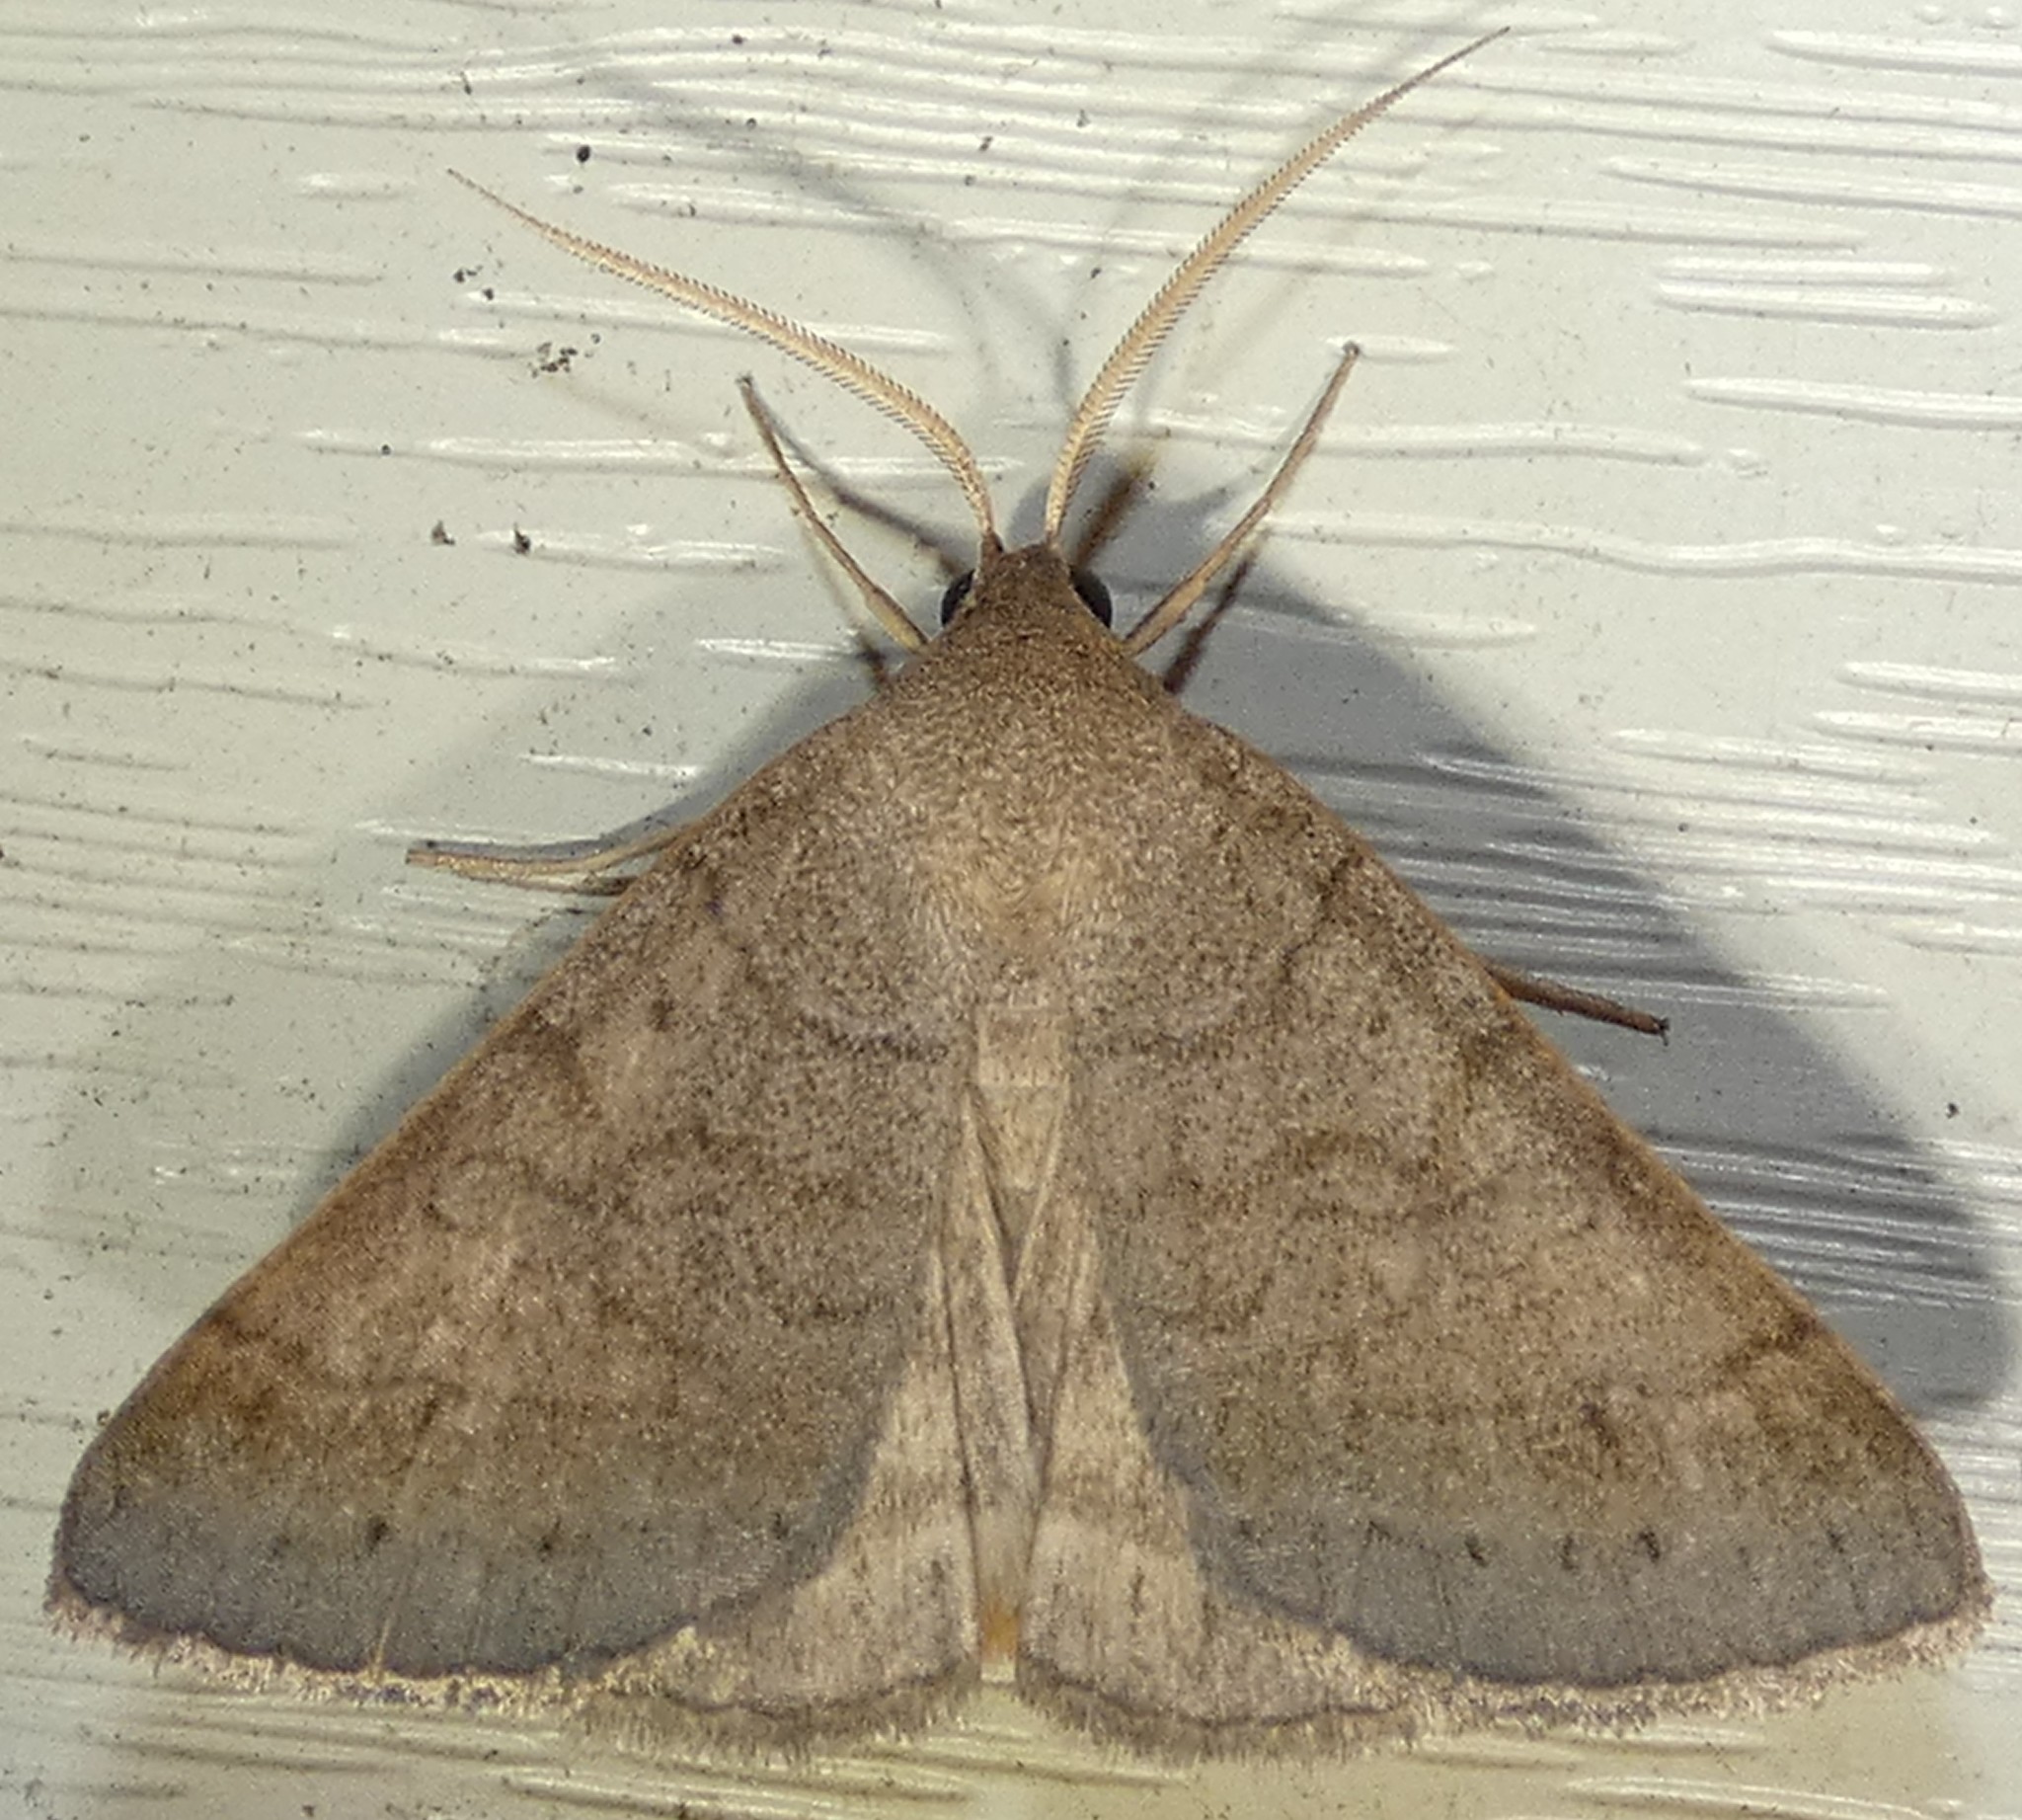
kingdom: Animalia
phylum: Arthropoda
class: Insecta
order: Lepidoptera
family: Erebidae
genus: Caenurgia
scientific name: Caenurgia chloropha
